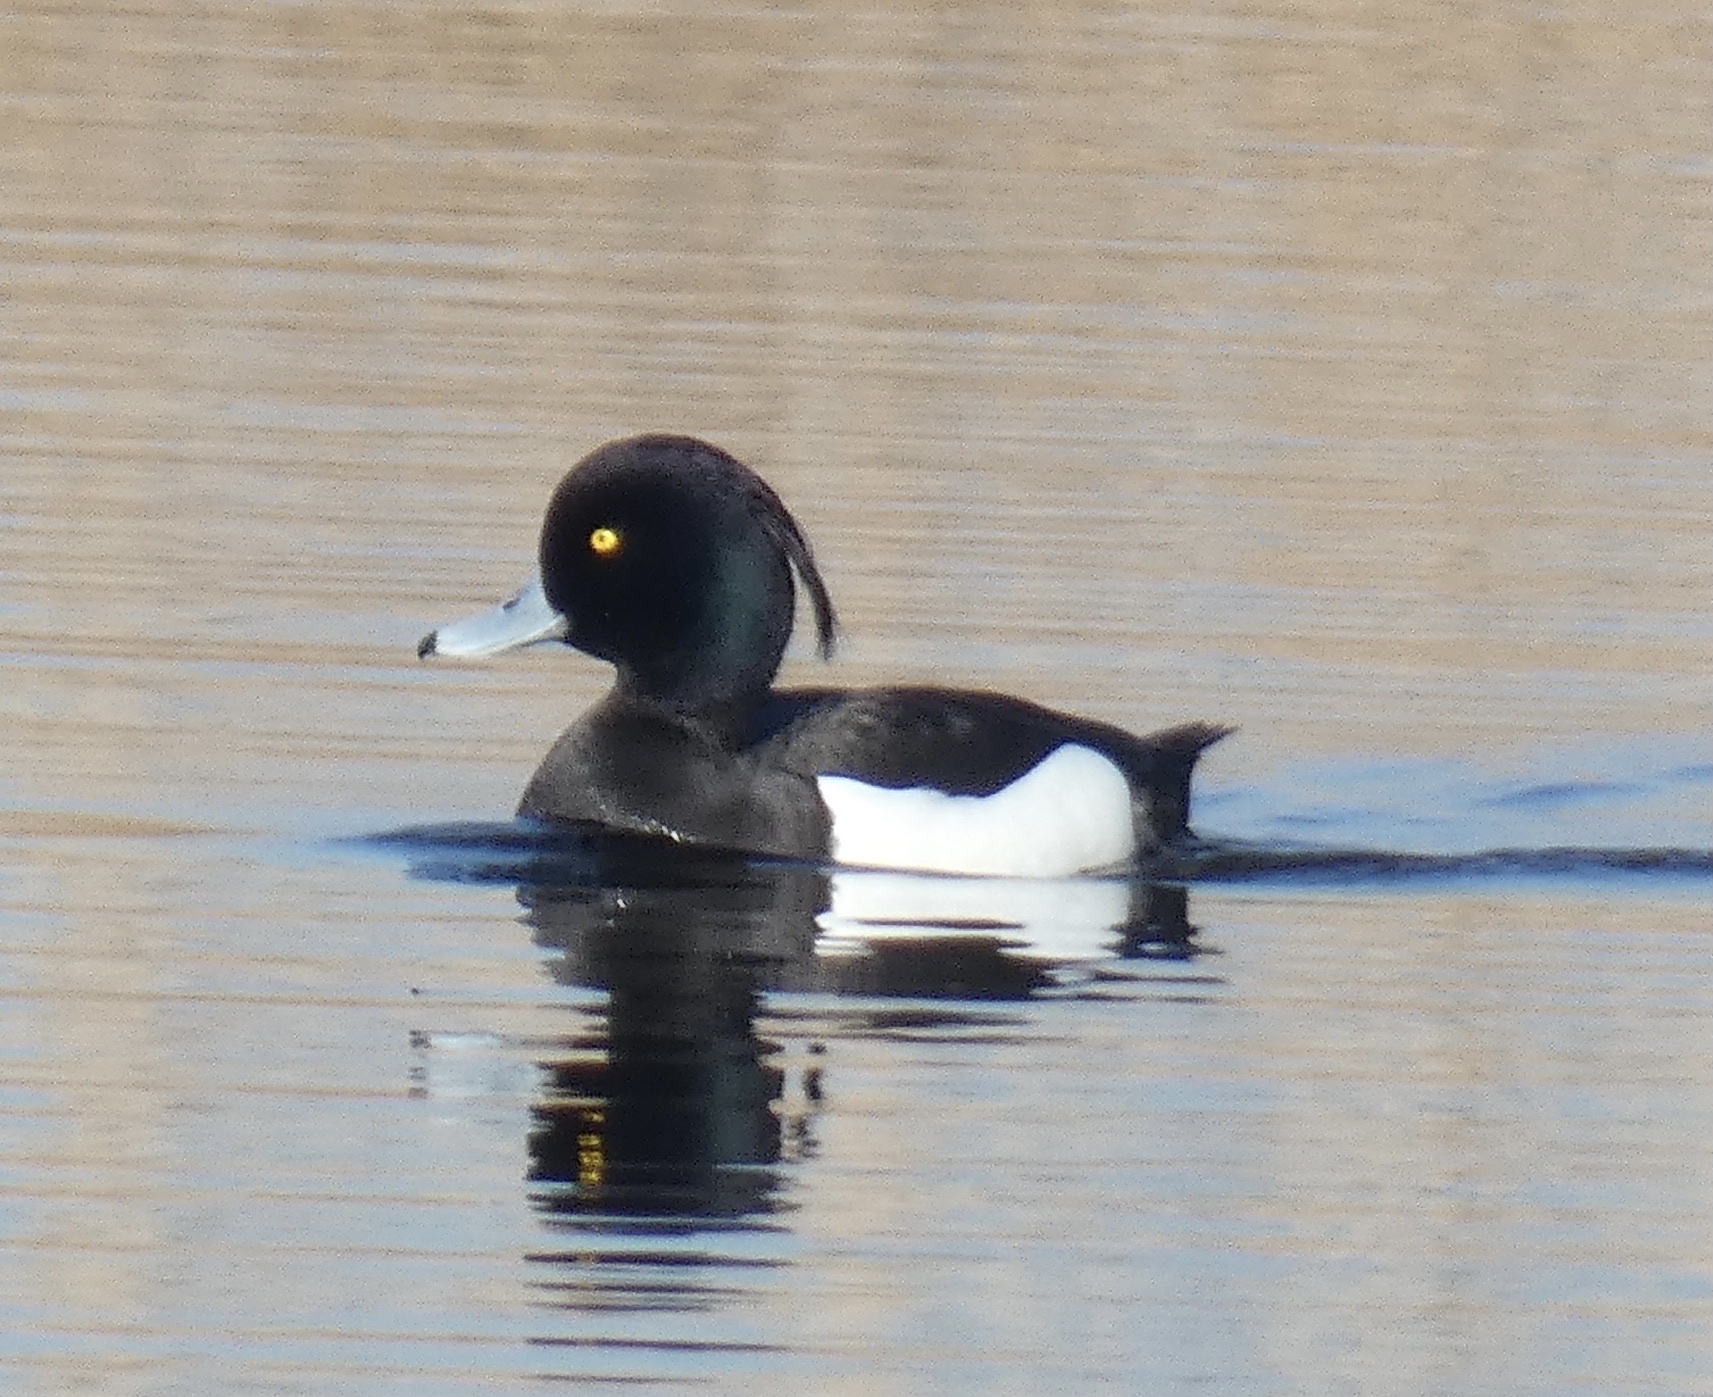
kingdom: Animalia
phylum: Chordata
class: Aves
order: Anseriformes
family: Anatidae
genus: Aythya
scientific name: Aythya fuligula
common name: Tufted duck
